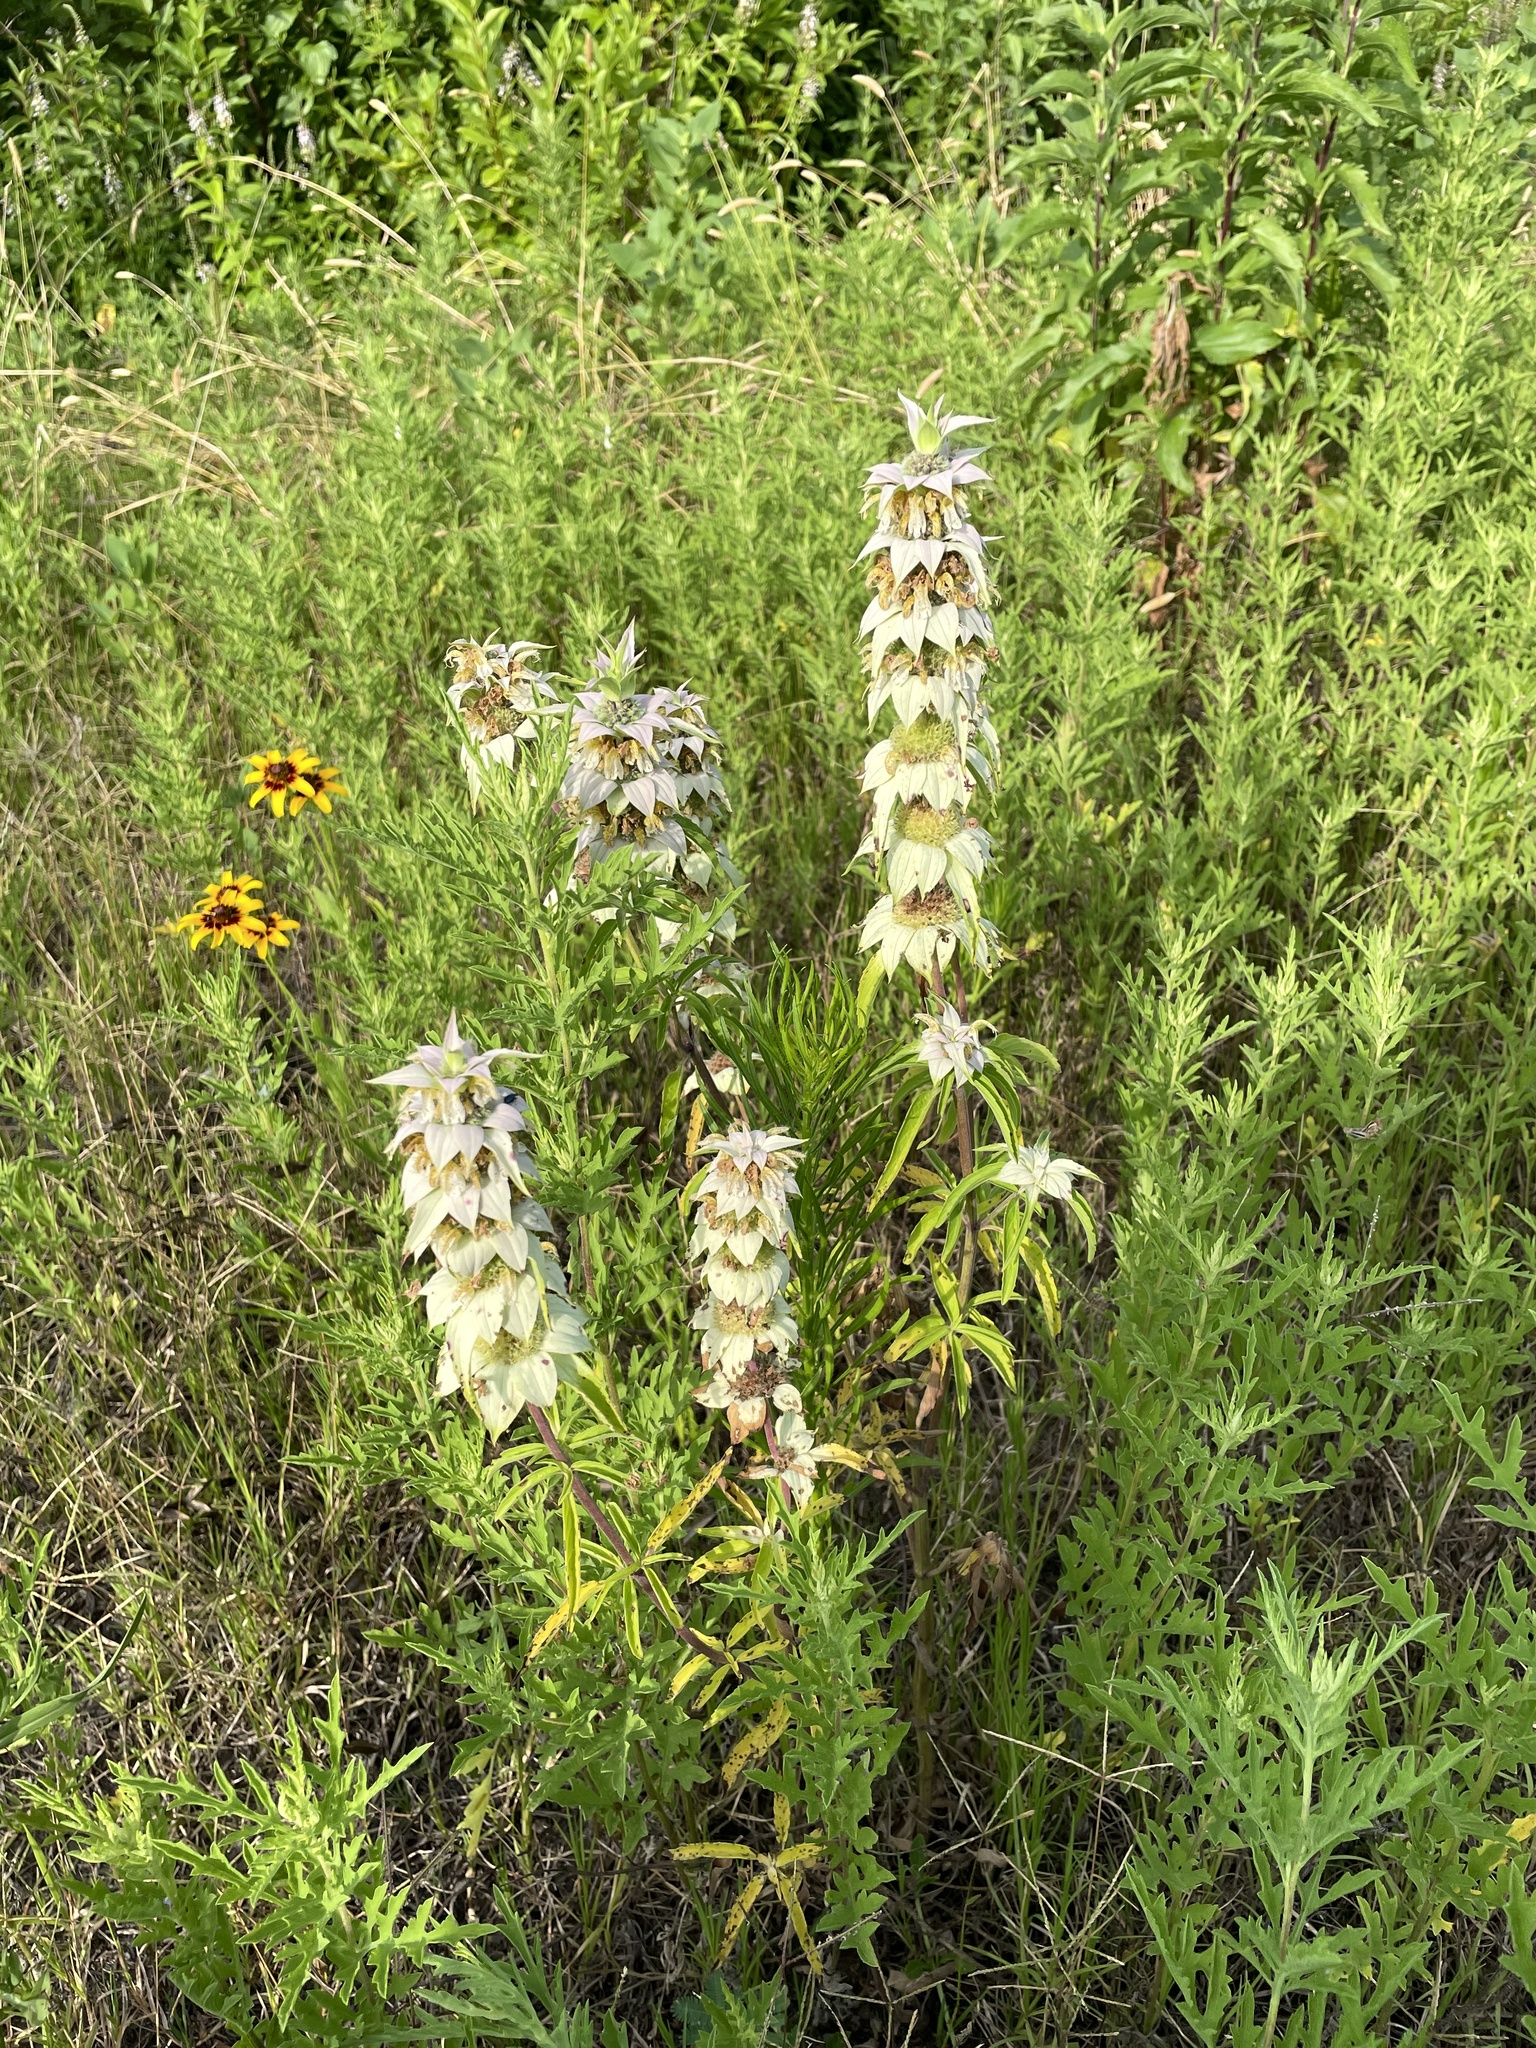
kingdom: Plantae
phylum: Tracheophyta
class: Magnoliopsida
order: Lamiales
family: Lamiaceae
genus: Monarda
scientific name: Monarda punctata
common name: Dotted monarda
